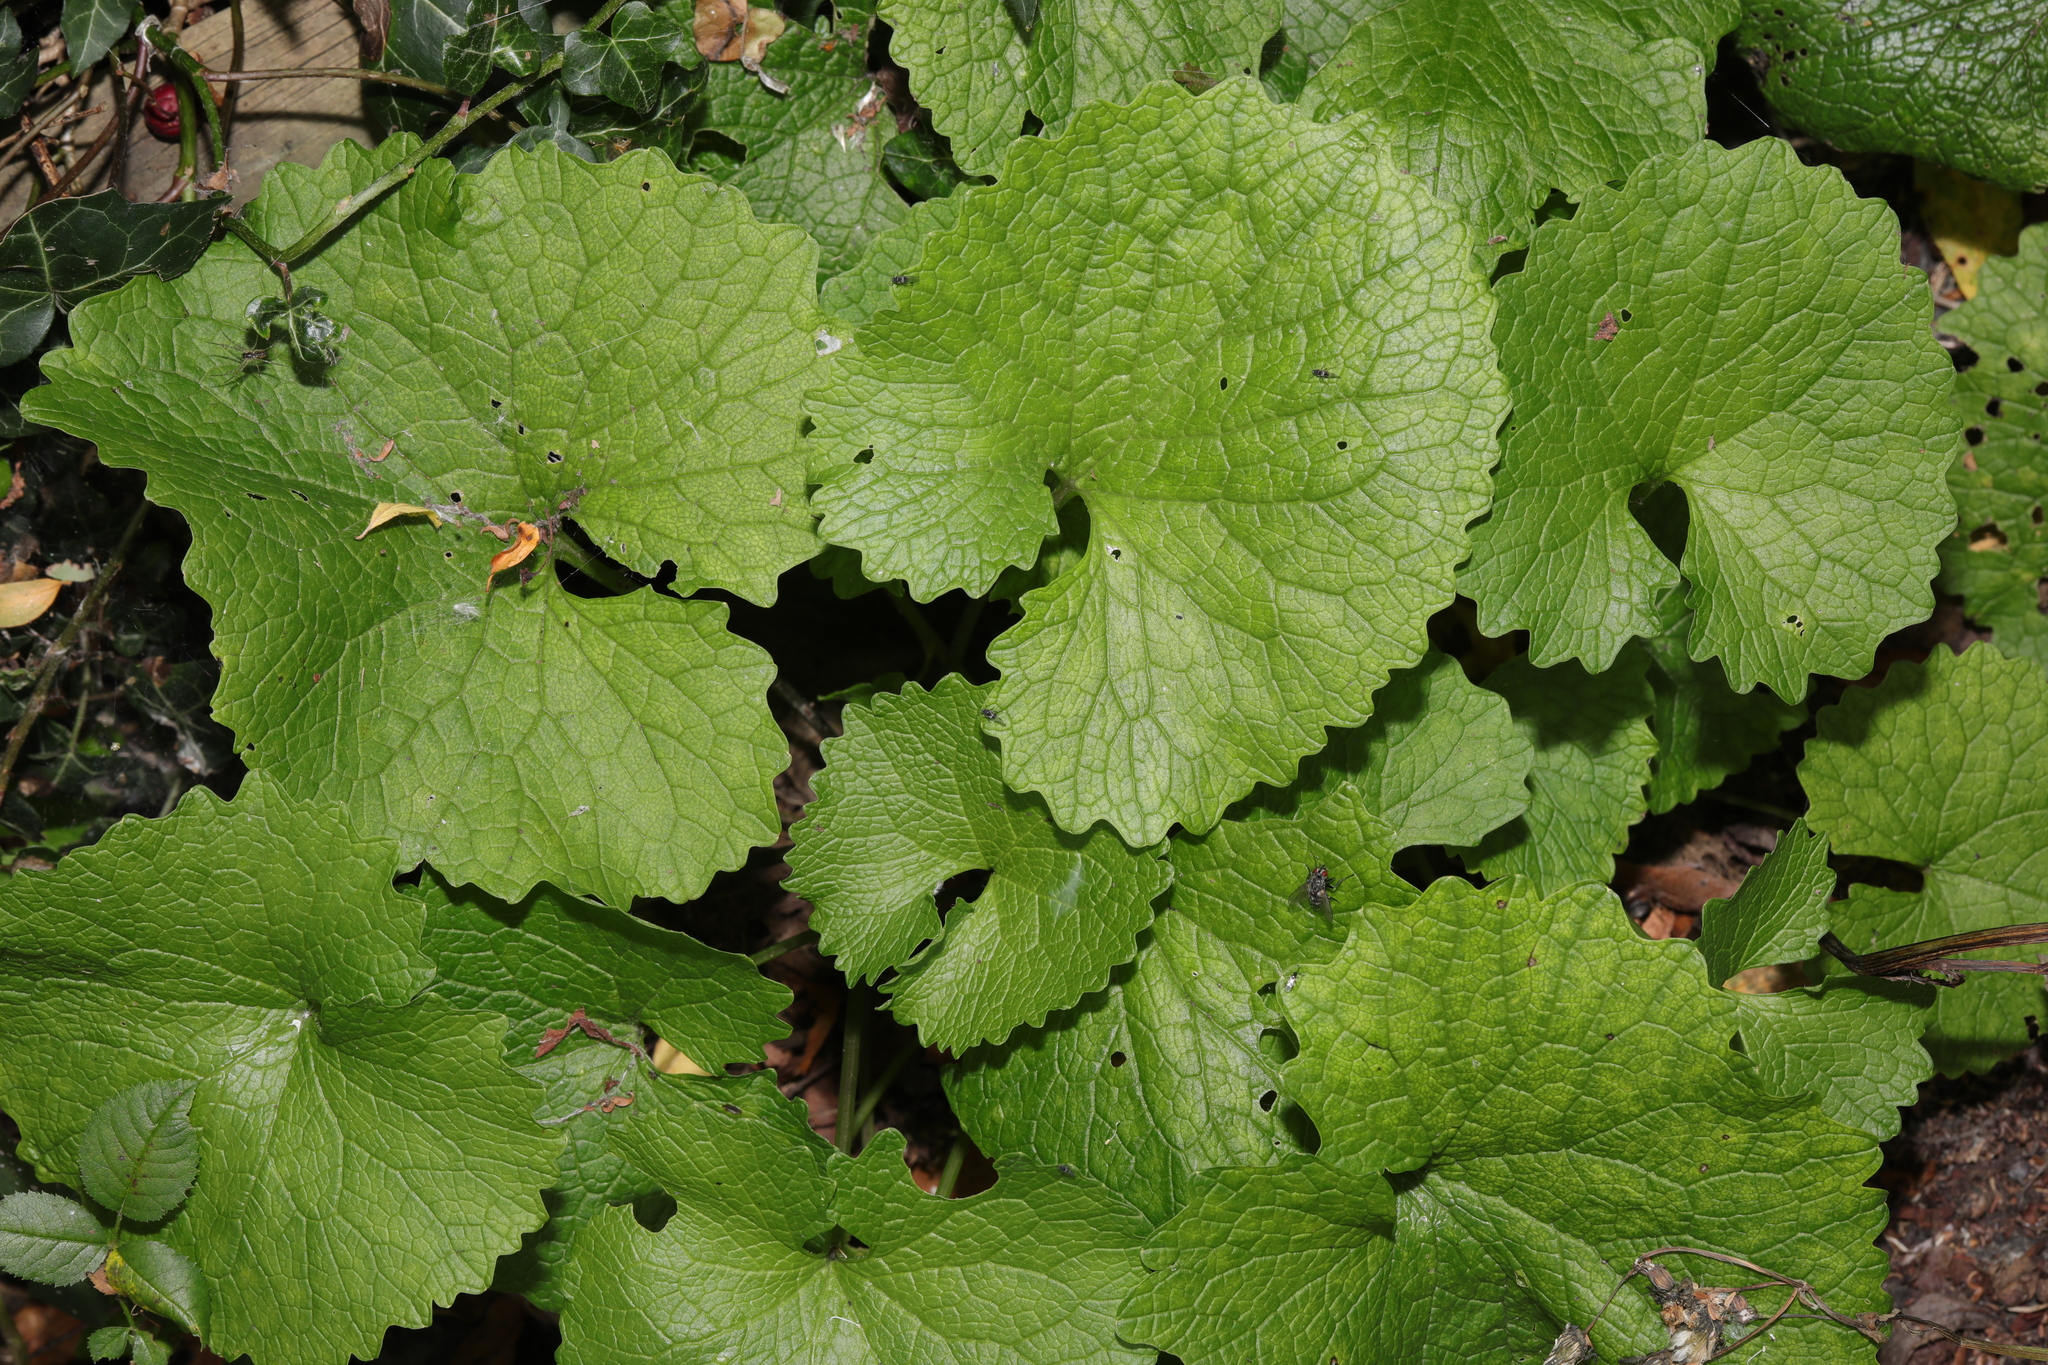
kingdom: Plantae
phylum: Tracheophyta
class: Magnoliopsida
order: Brassicales
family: Brassicaceae
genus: Alliaria
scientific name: Alliaria petiolata
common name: Garlic mustard
